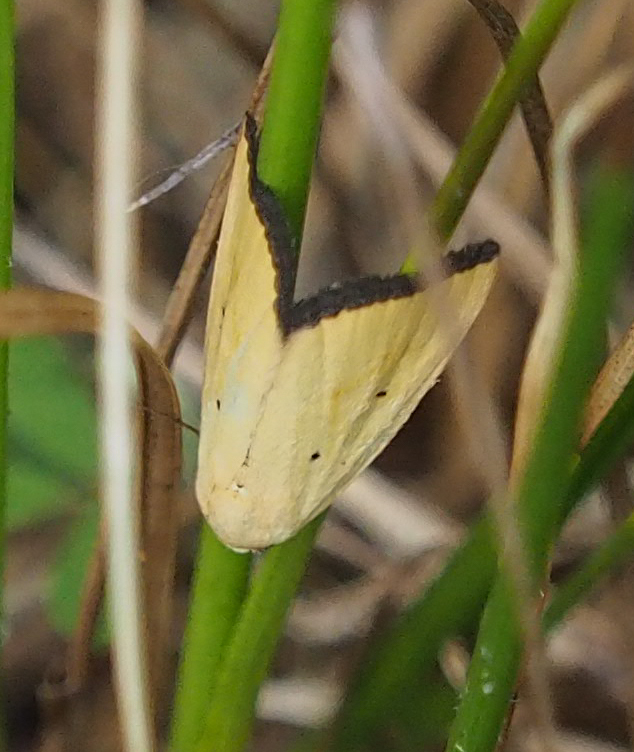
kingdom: Animalia
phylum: Arthropoda
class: Insecta
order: Lepidoptera
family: Noctuidae
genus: Marimatha
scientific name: Marimatha nigrofimbria
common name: Black-bordered lemon moth
